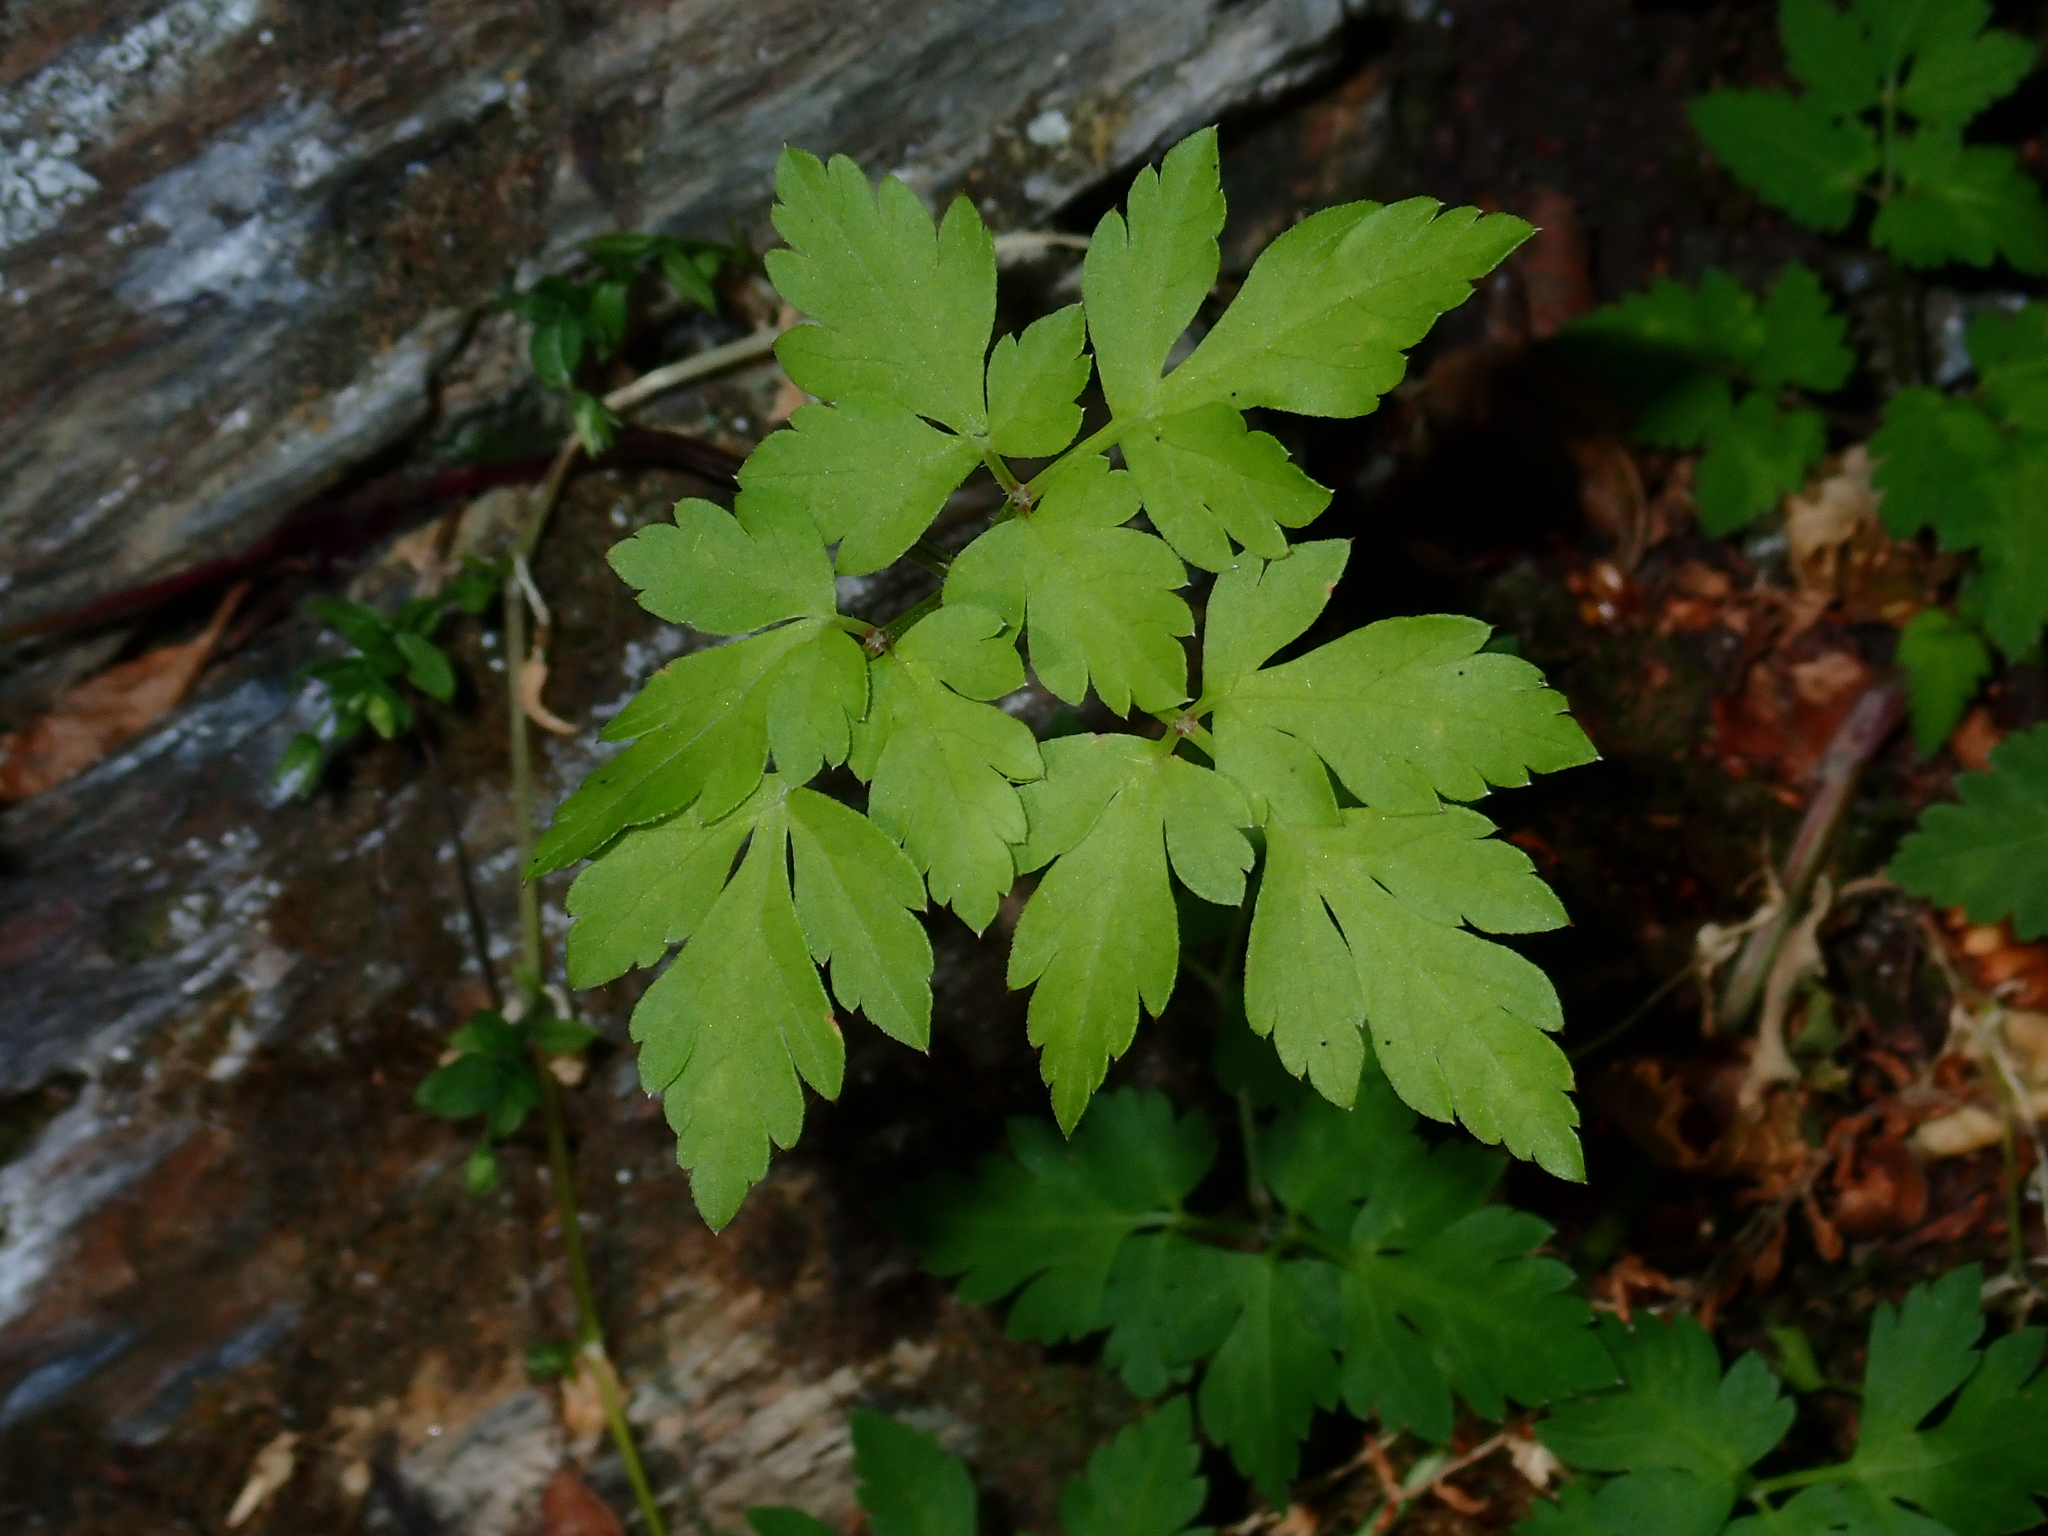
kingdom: Plantae
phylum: Tracheophyta
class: Magnoliopsida
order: Apiales
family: Apiaceae
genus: Osmorhiza
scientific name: Osmorhiza berteroi
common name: Mountain sweet cicely
